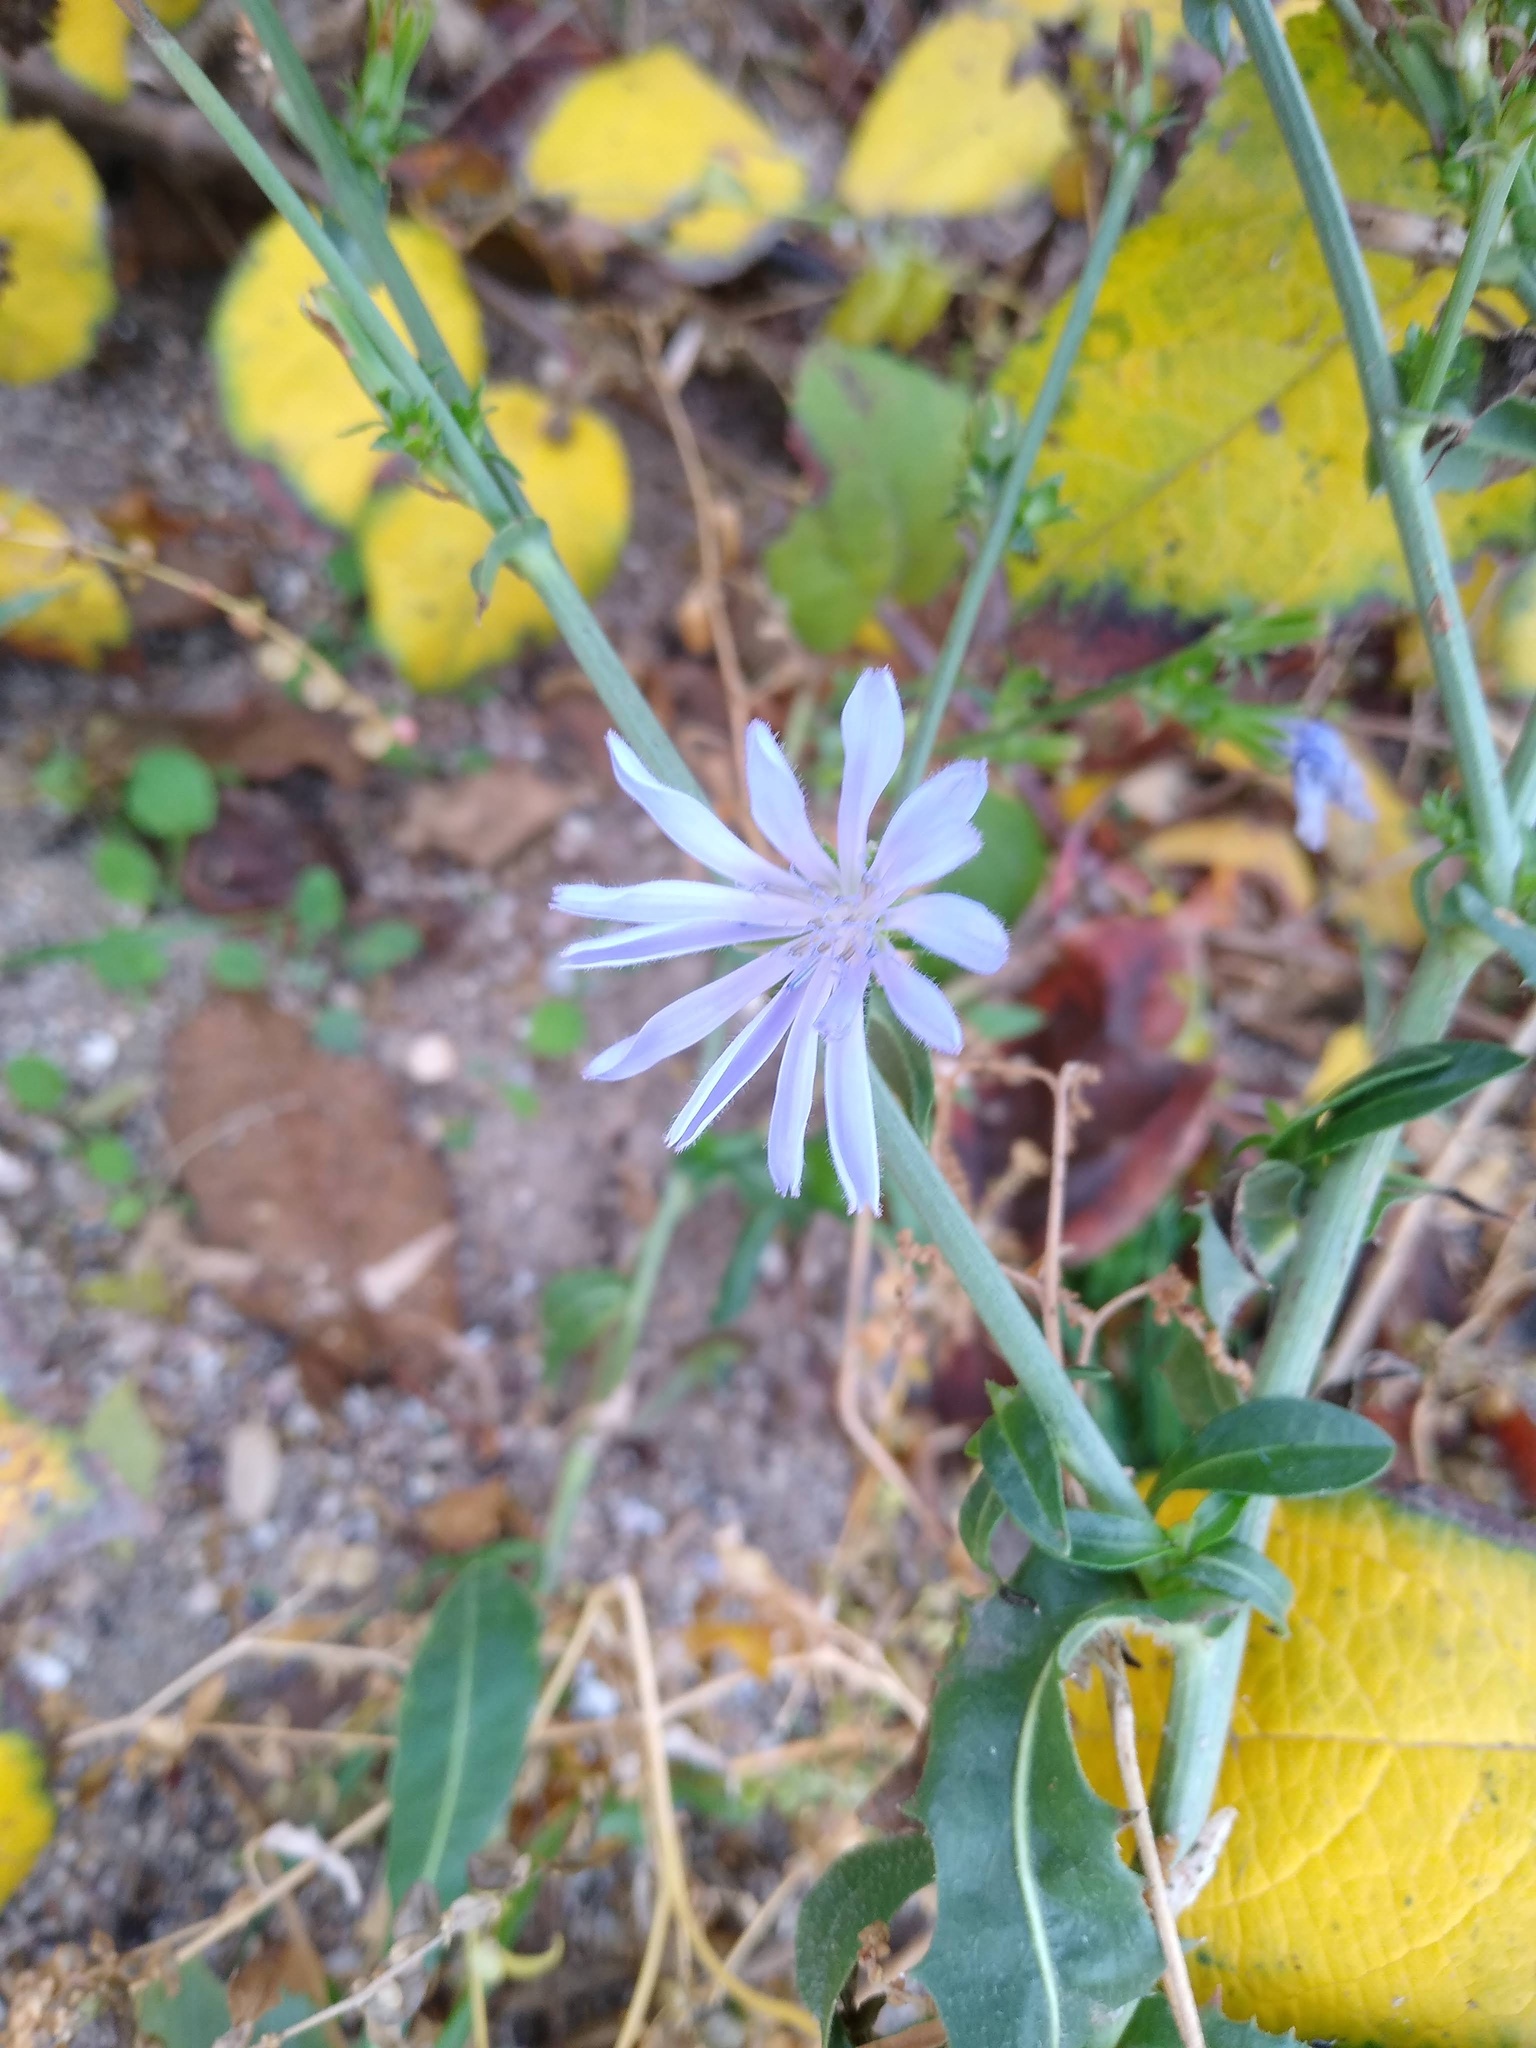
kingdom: Plantae
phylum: Tracheophyta
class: Magnoliopsida
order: Asterales
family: Asteraceae
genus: Cichorium
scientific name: Cichorium intybus
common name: Chicory
